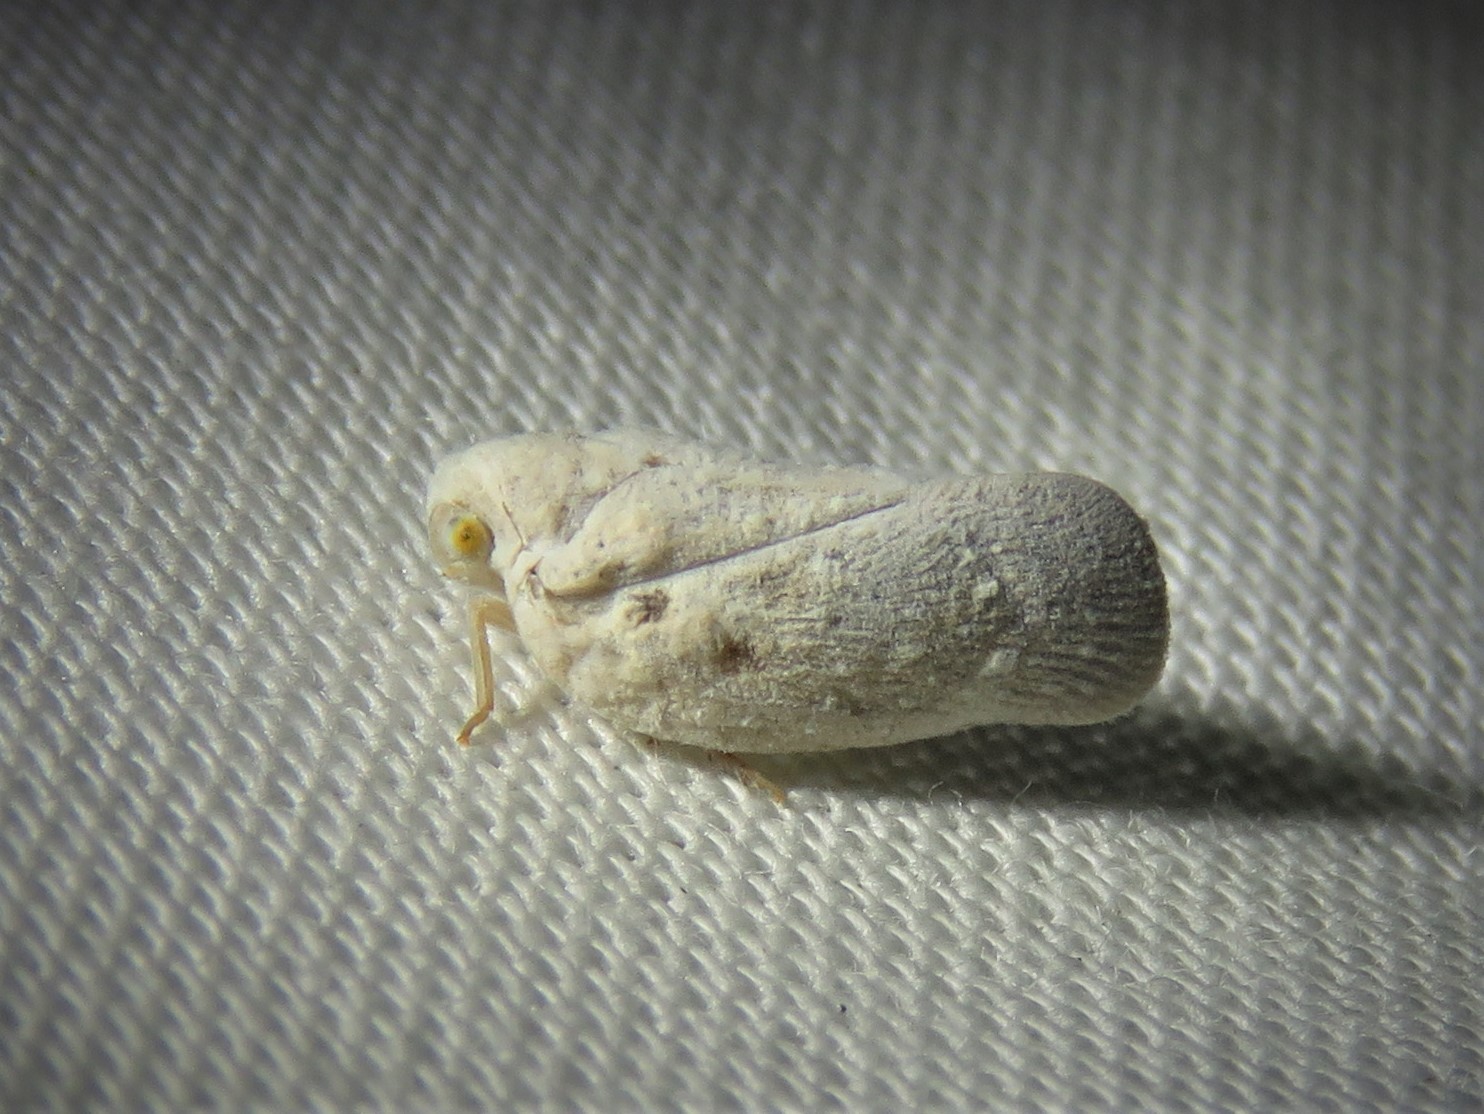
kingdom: Animalia
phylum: Arthropoda
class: Insecta
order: Hemiptera
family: Flatidae
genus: Metcalfa
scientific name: Metcalfa pruinosa
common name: Citrus flatid planthopper
